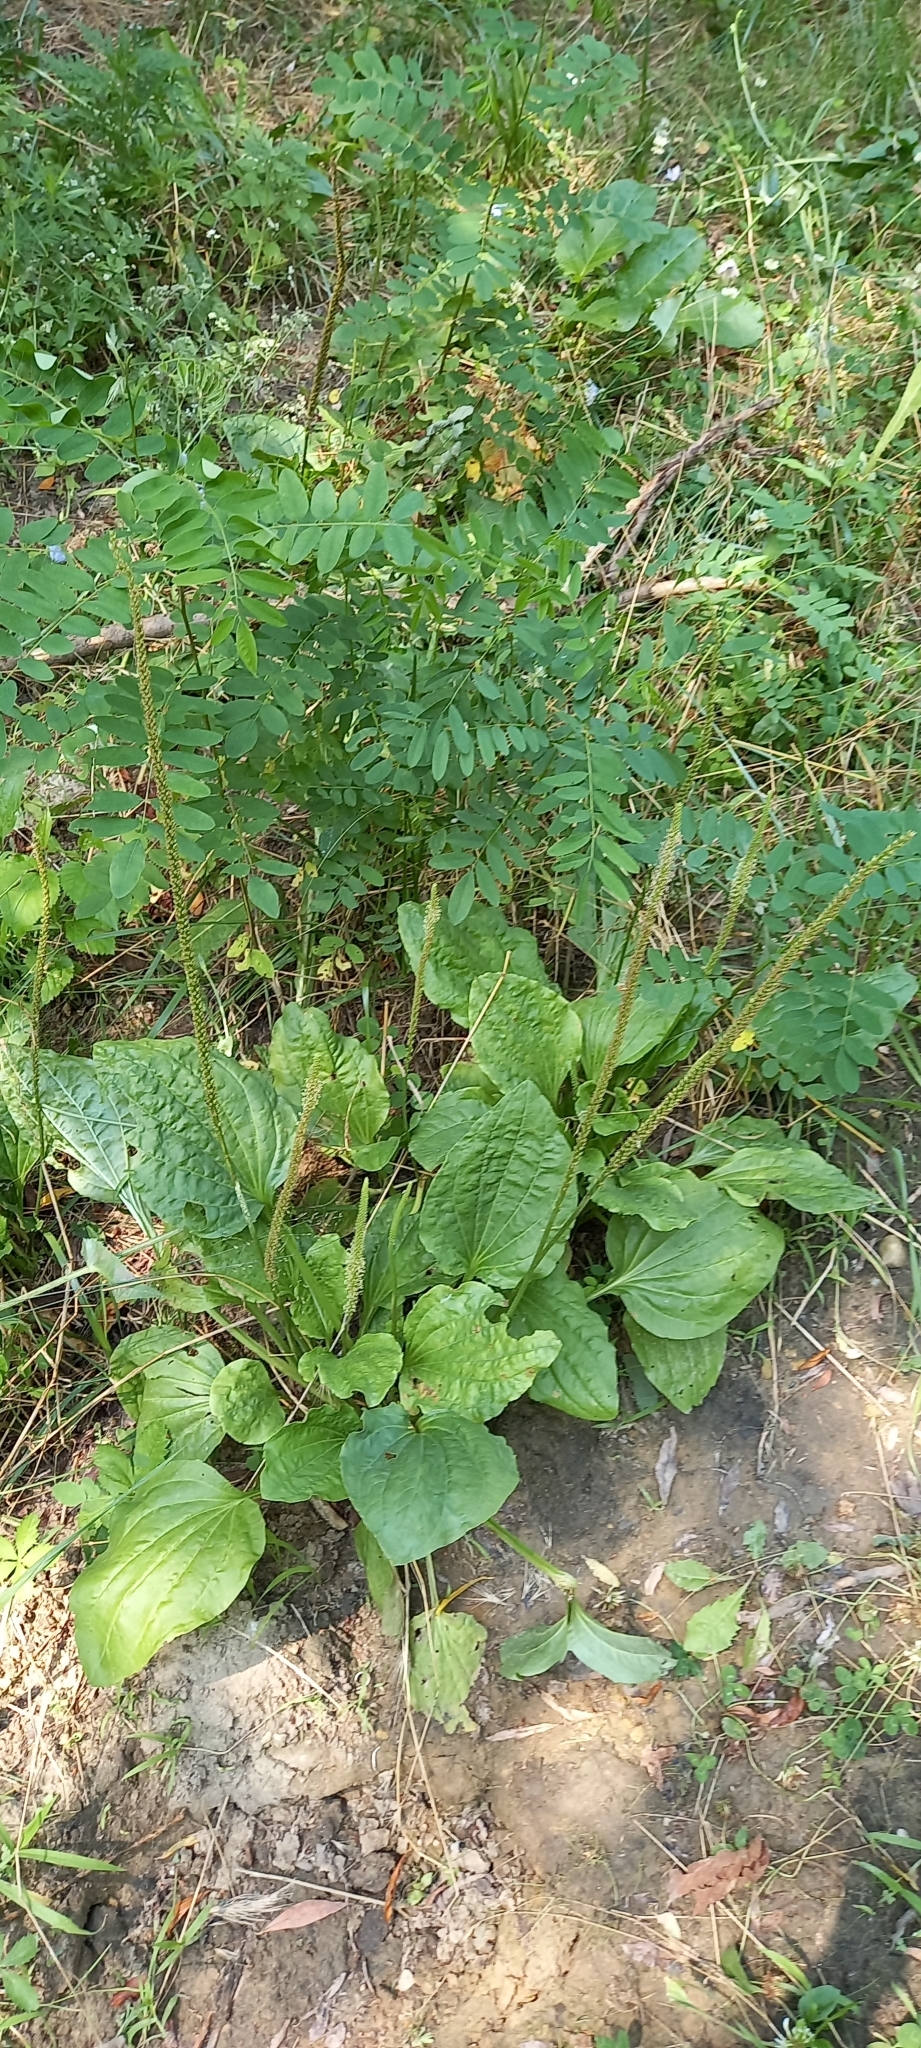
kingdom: Plantae
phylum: Tracheophyta
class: Magnoliopsida
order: Lamiales
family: Plantaginaceae
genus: Plantago
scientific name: Plantago major
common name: Common plantain
